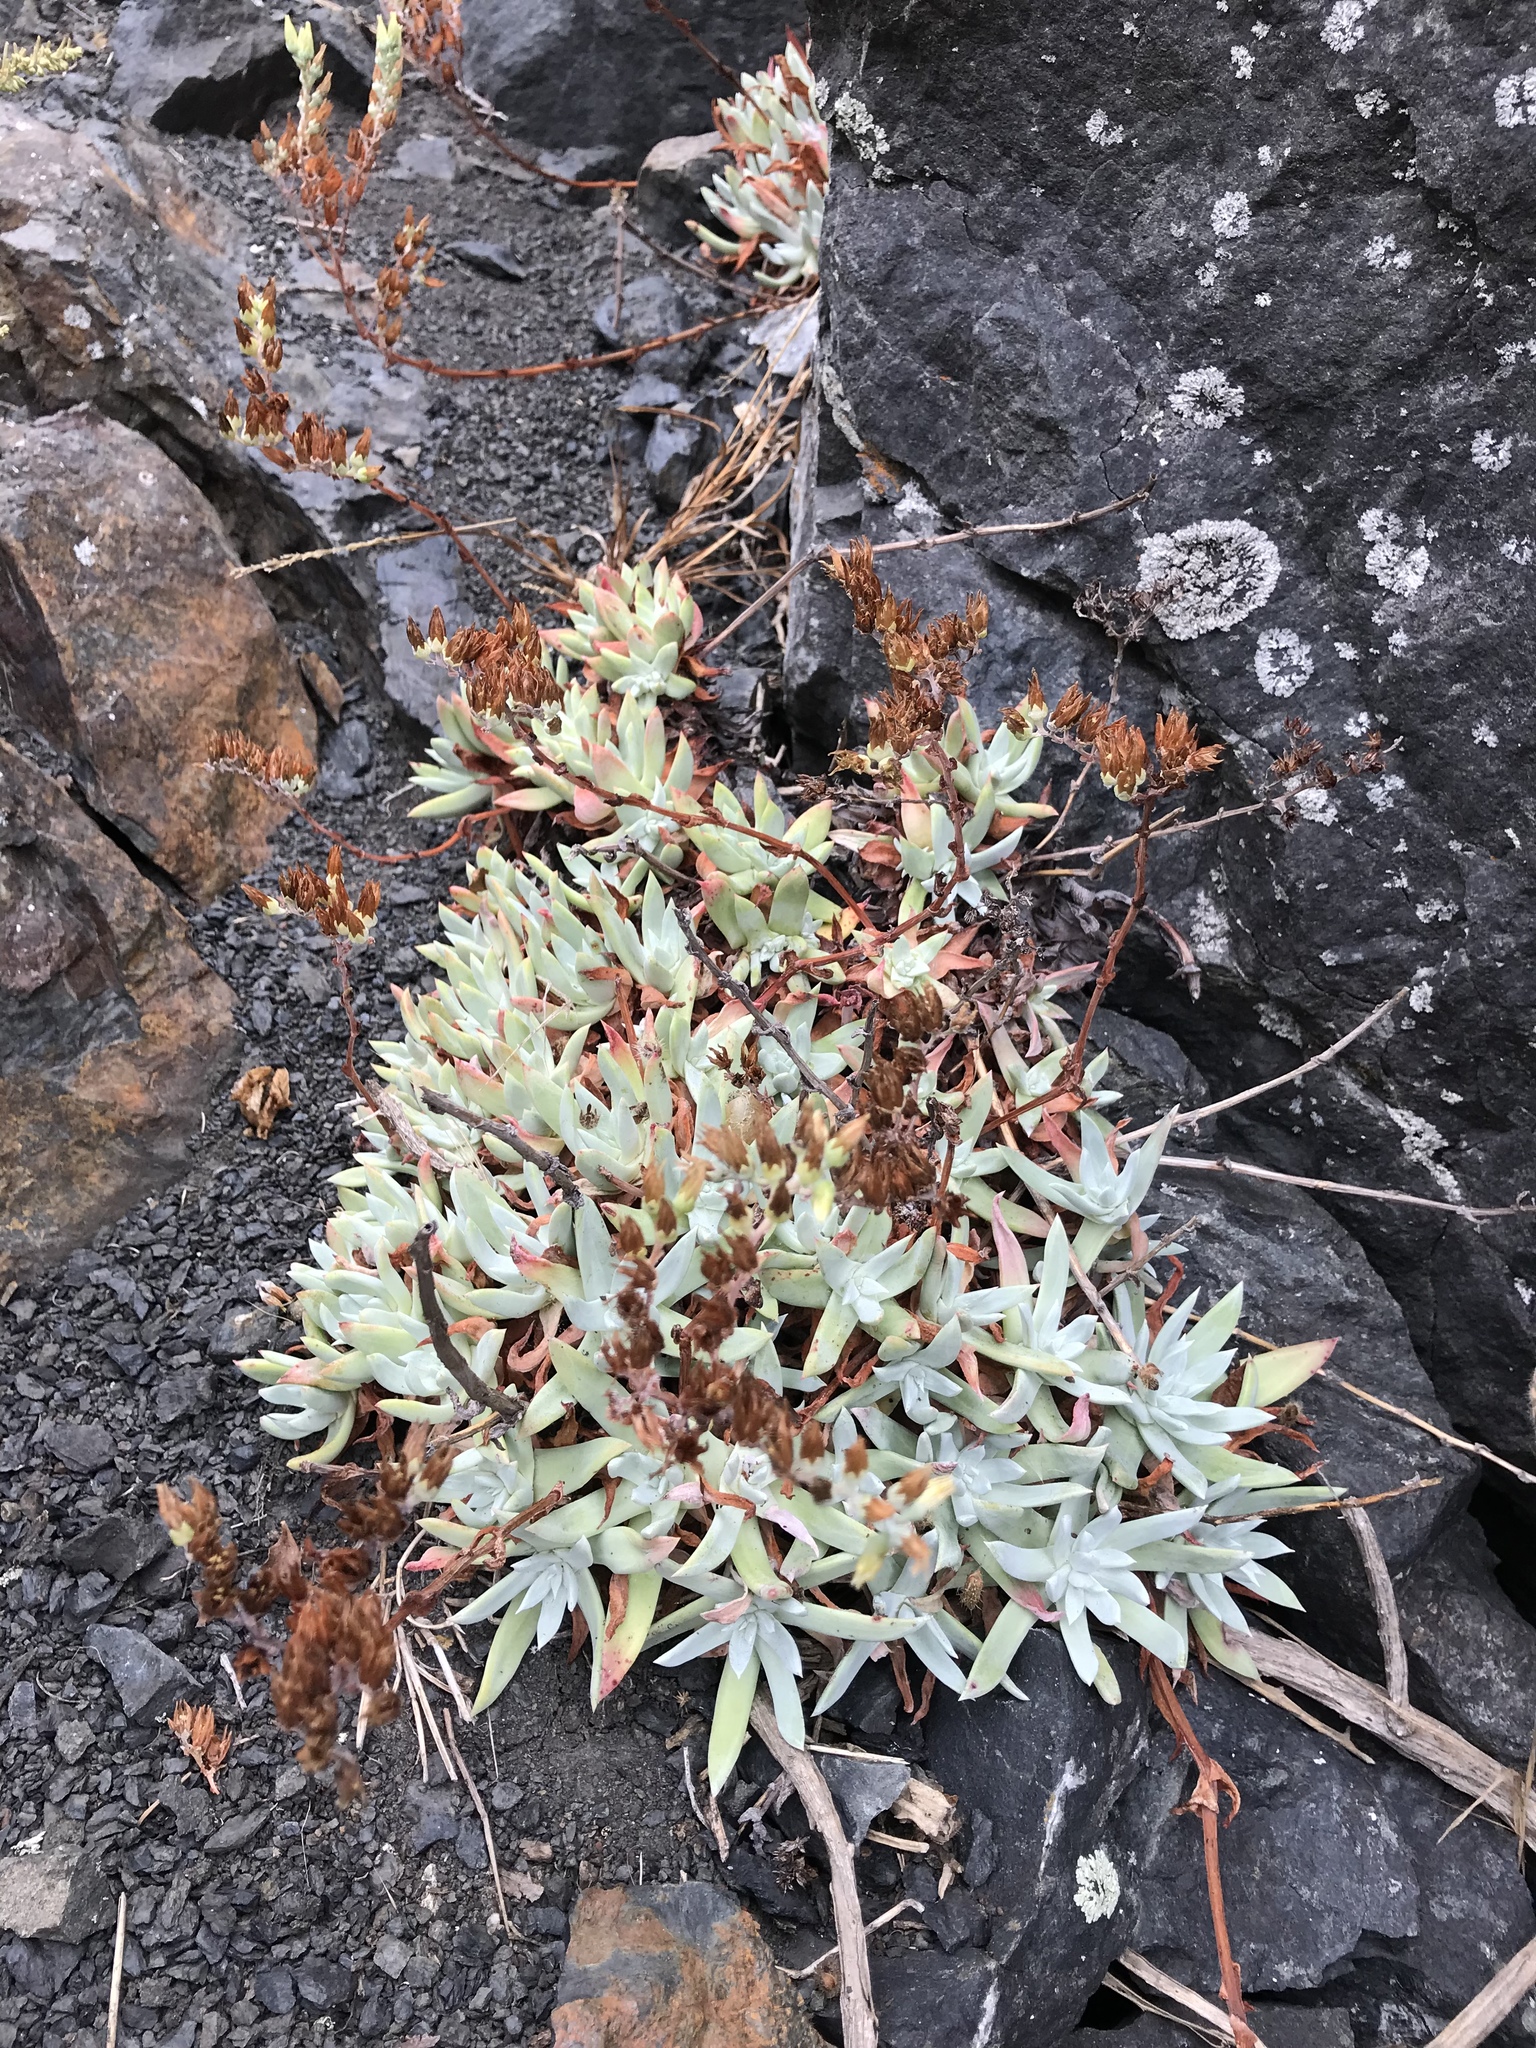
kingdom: Plantae
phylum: Tracheophyta
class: Magnoliopsida
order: Saxifragales
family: Crassulaceae
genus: Dudleya
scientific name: Dudleya farinosa
